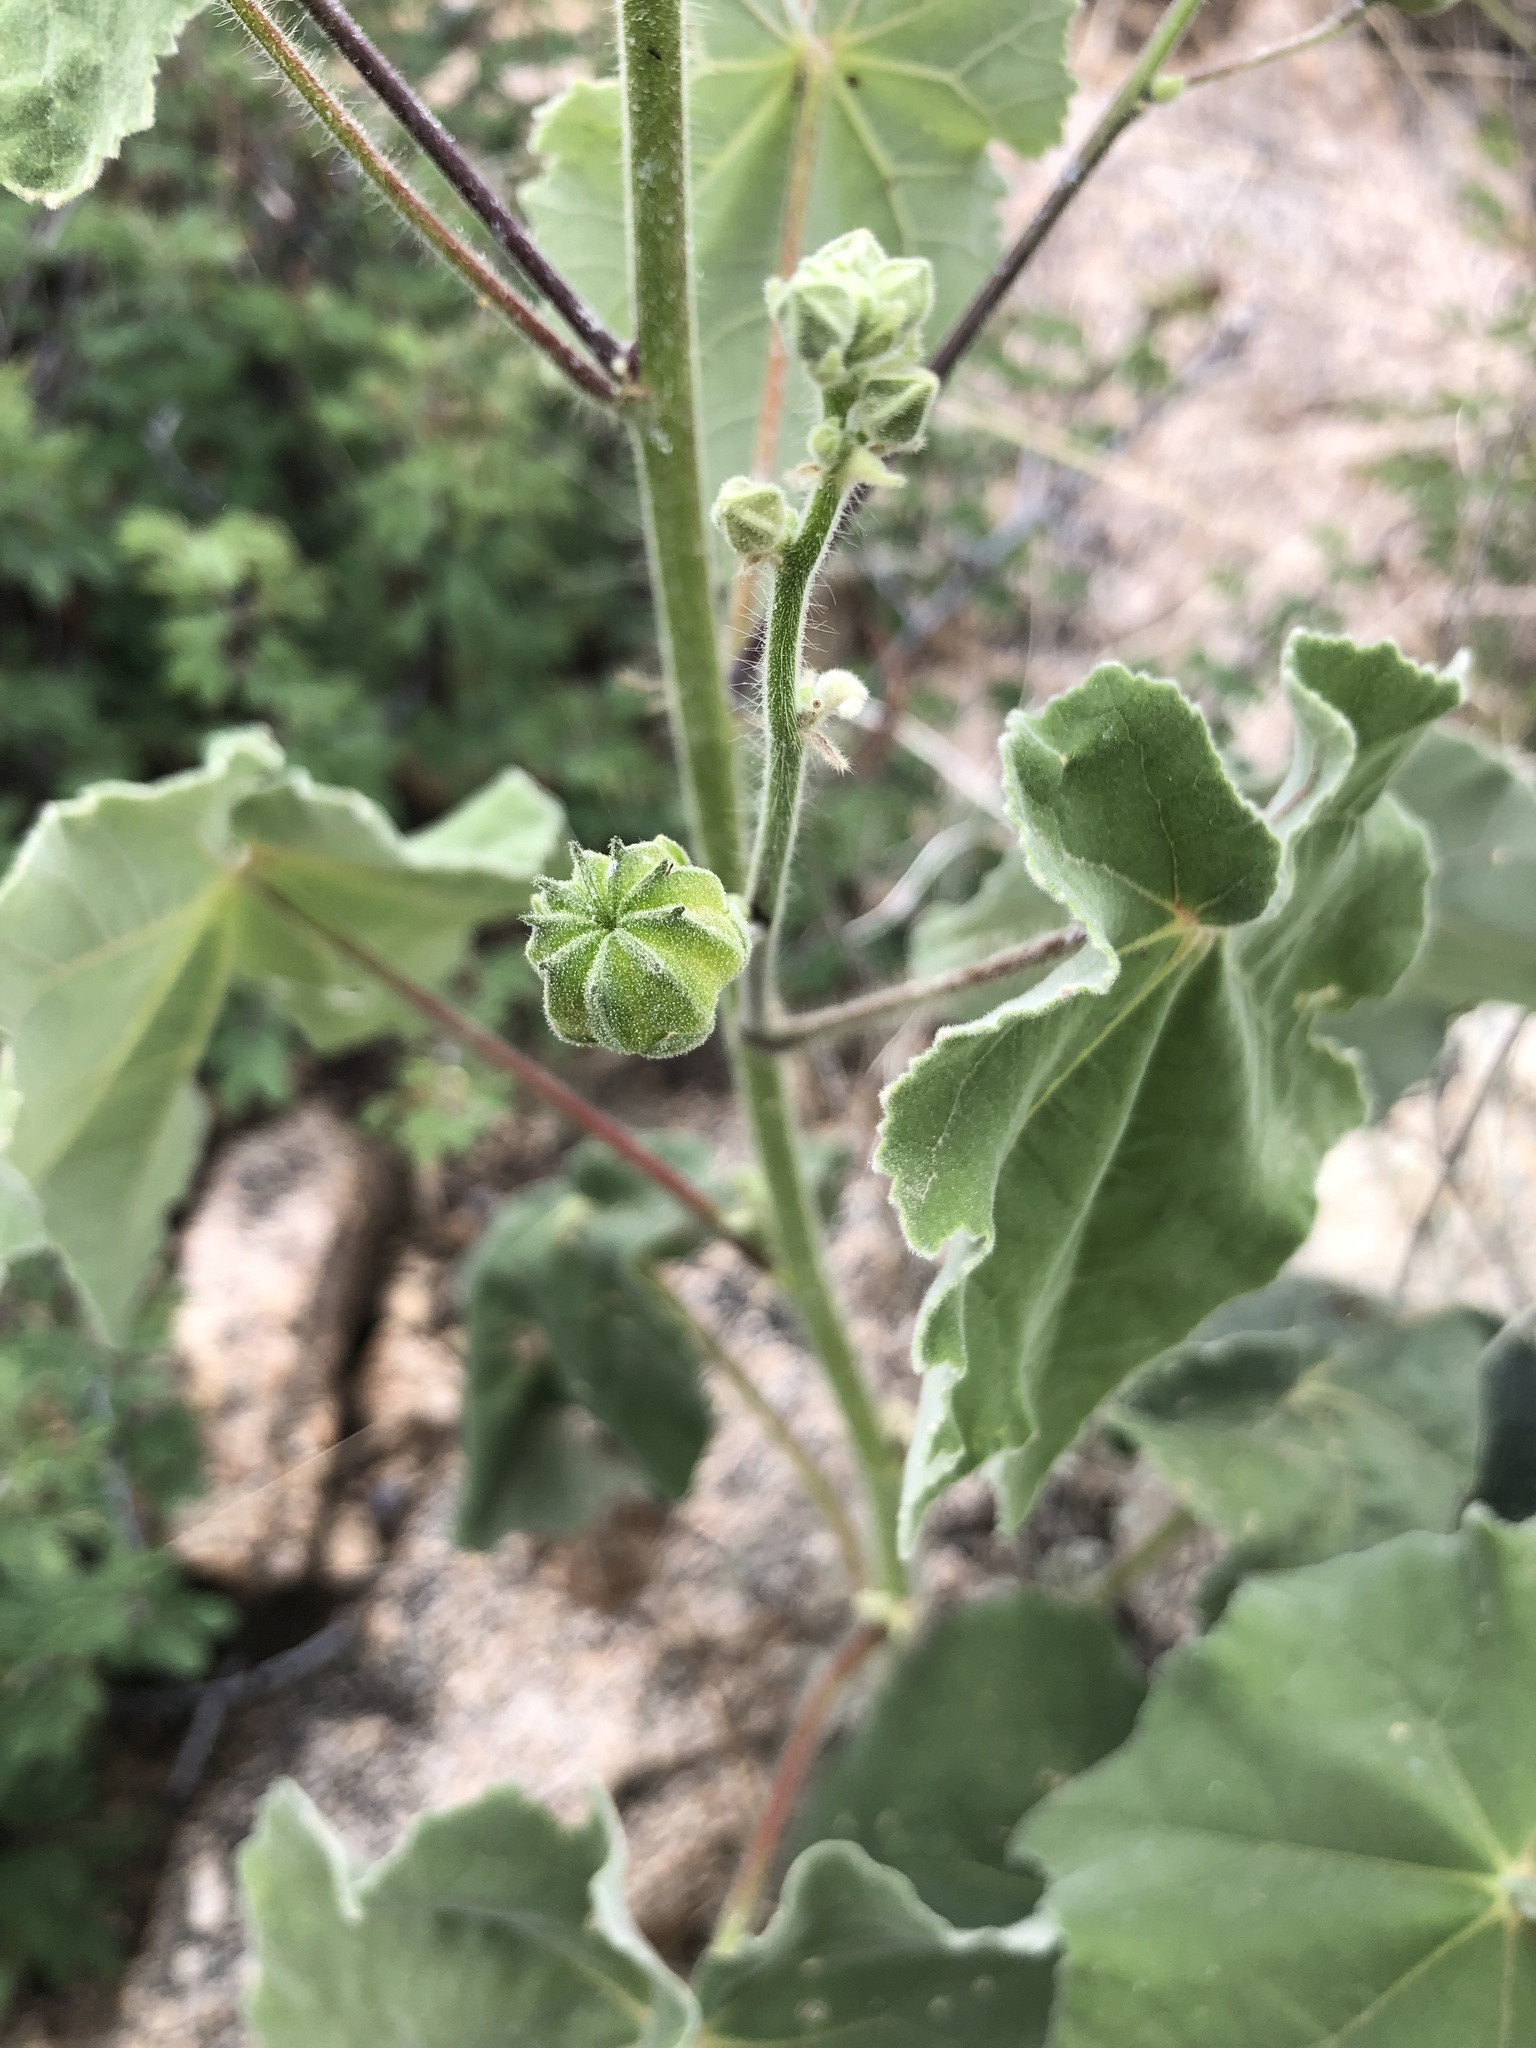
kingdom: Plantae
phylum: Tracheophyta
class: Magnoliopsida
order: Malvales
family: Malvaceae
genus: Abutilon
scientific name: Abutilon mollicomum
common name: Sonoran indian-mallow
